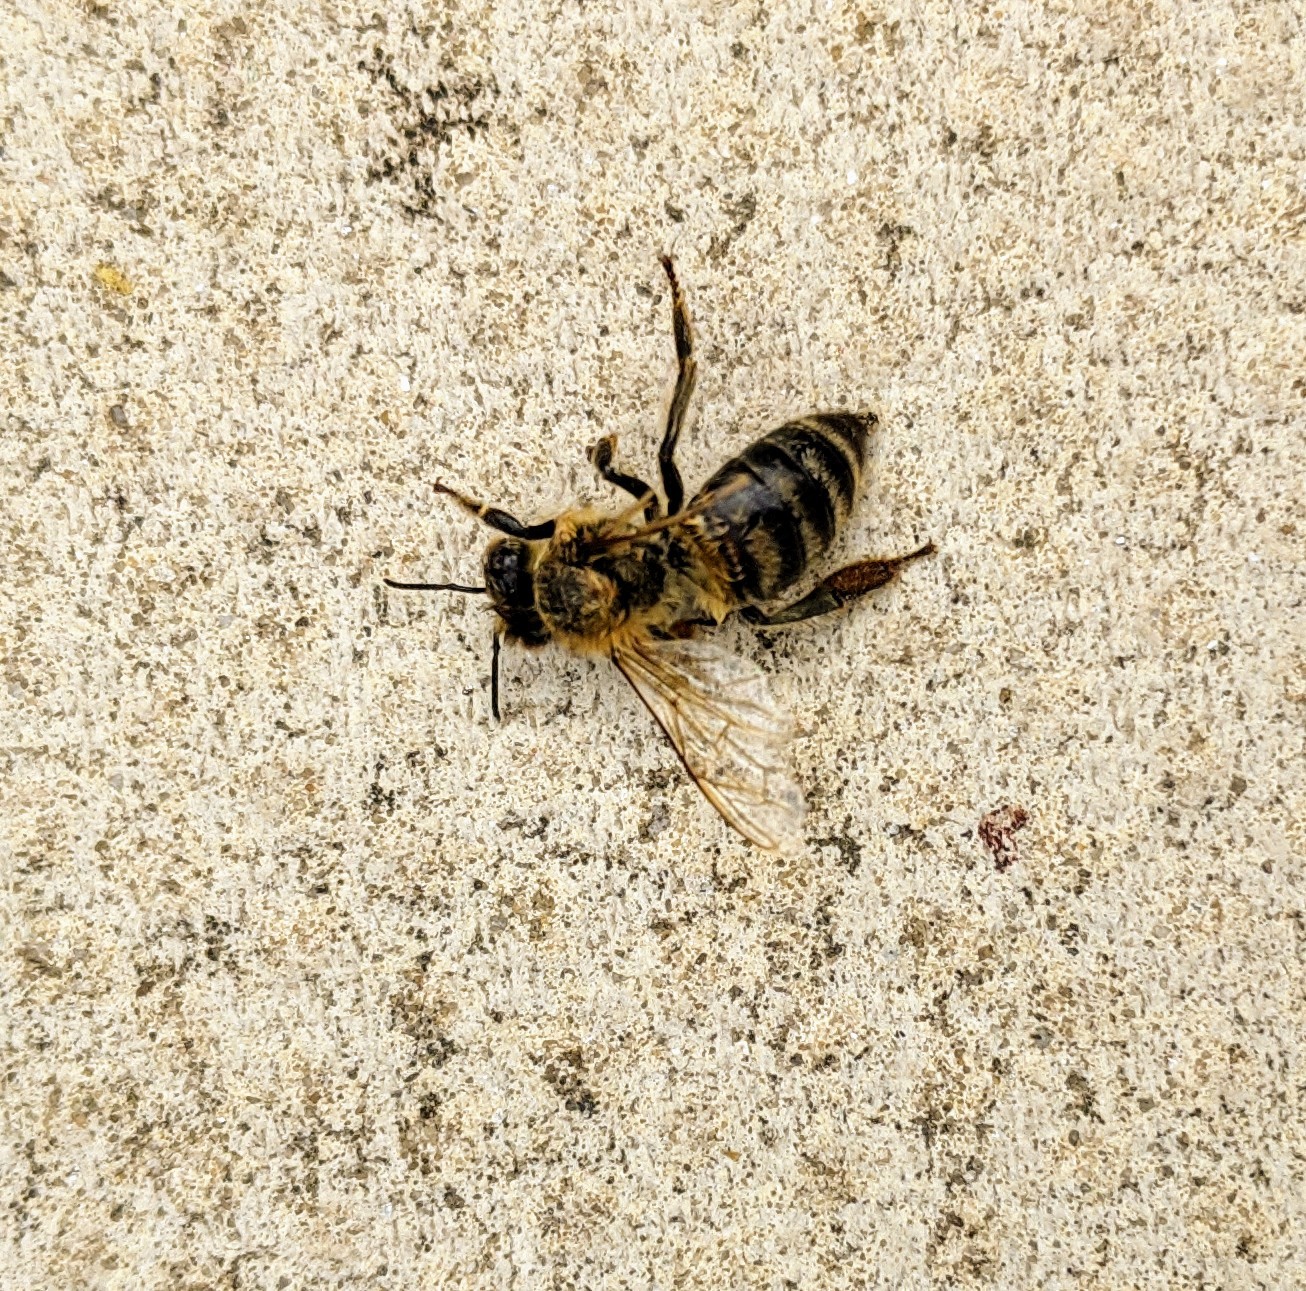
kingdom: Animalia
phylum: Arthropoda
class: Insecta
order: Hymenoptera
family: Apidae
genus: Apis
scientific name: Apis mellifera
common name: Honey bee
